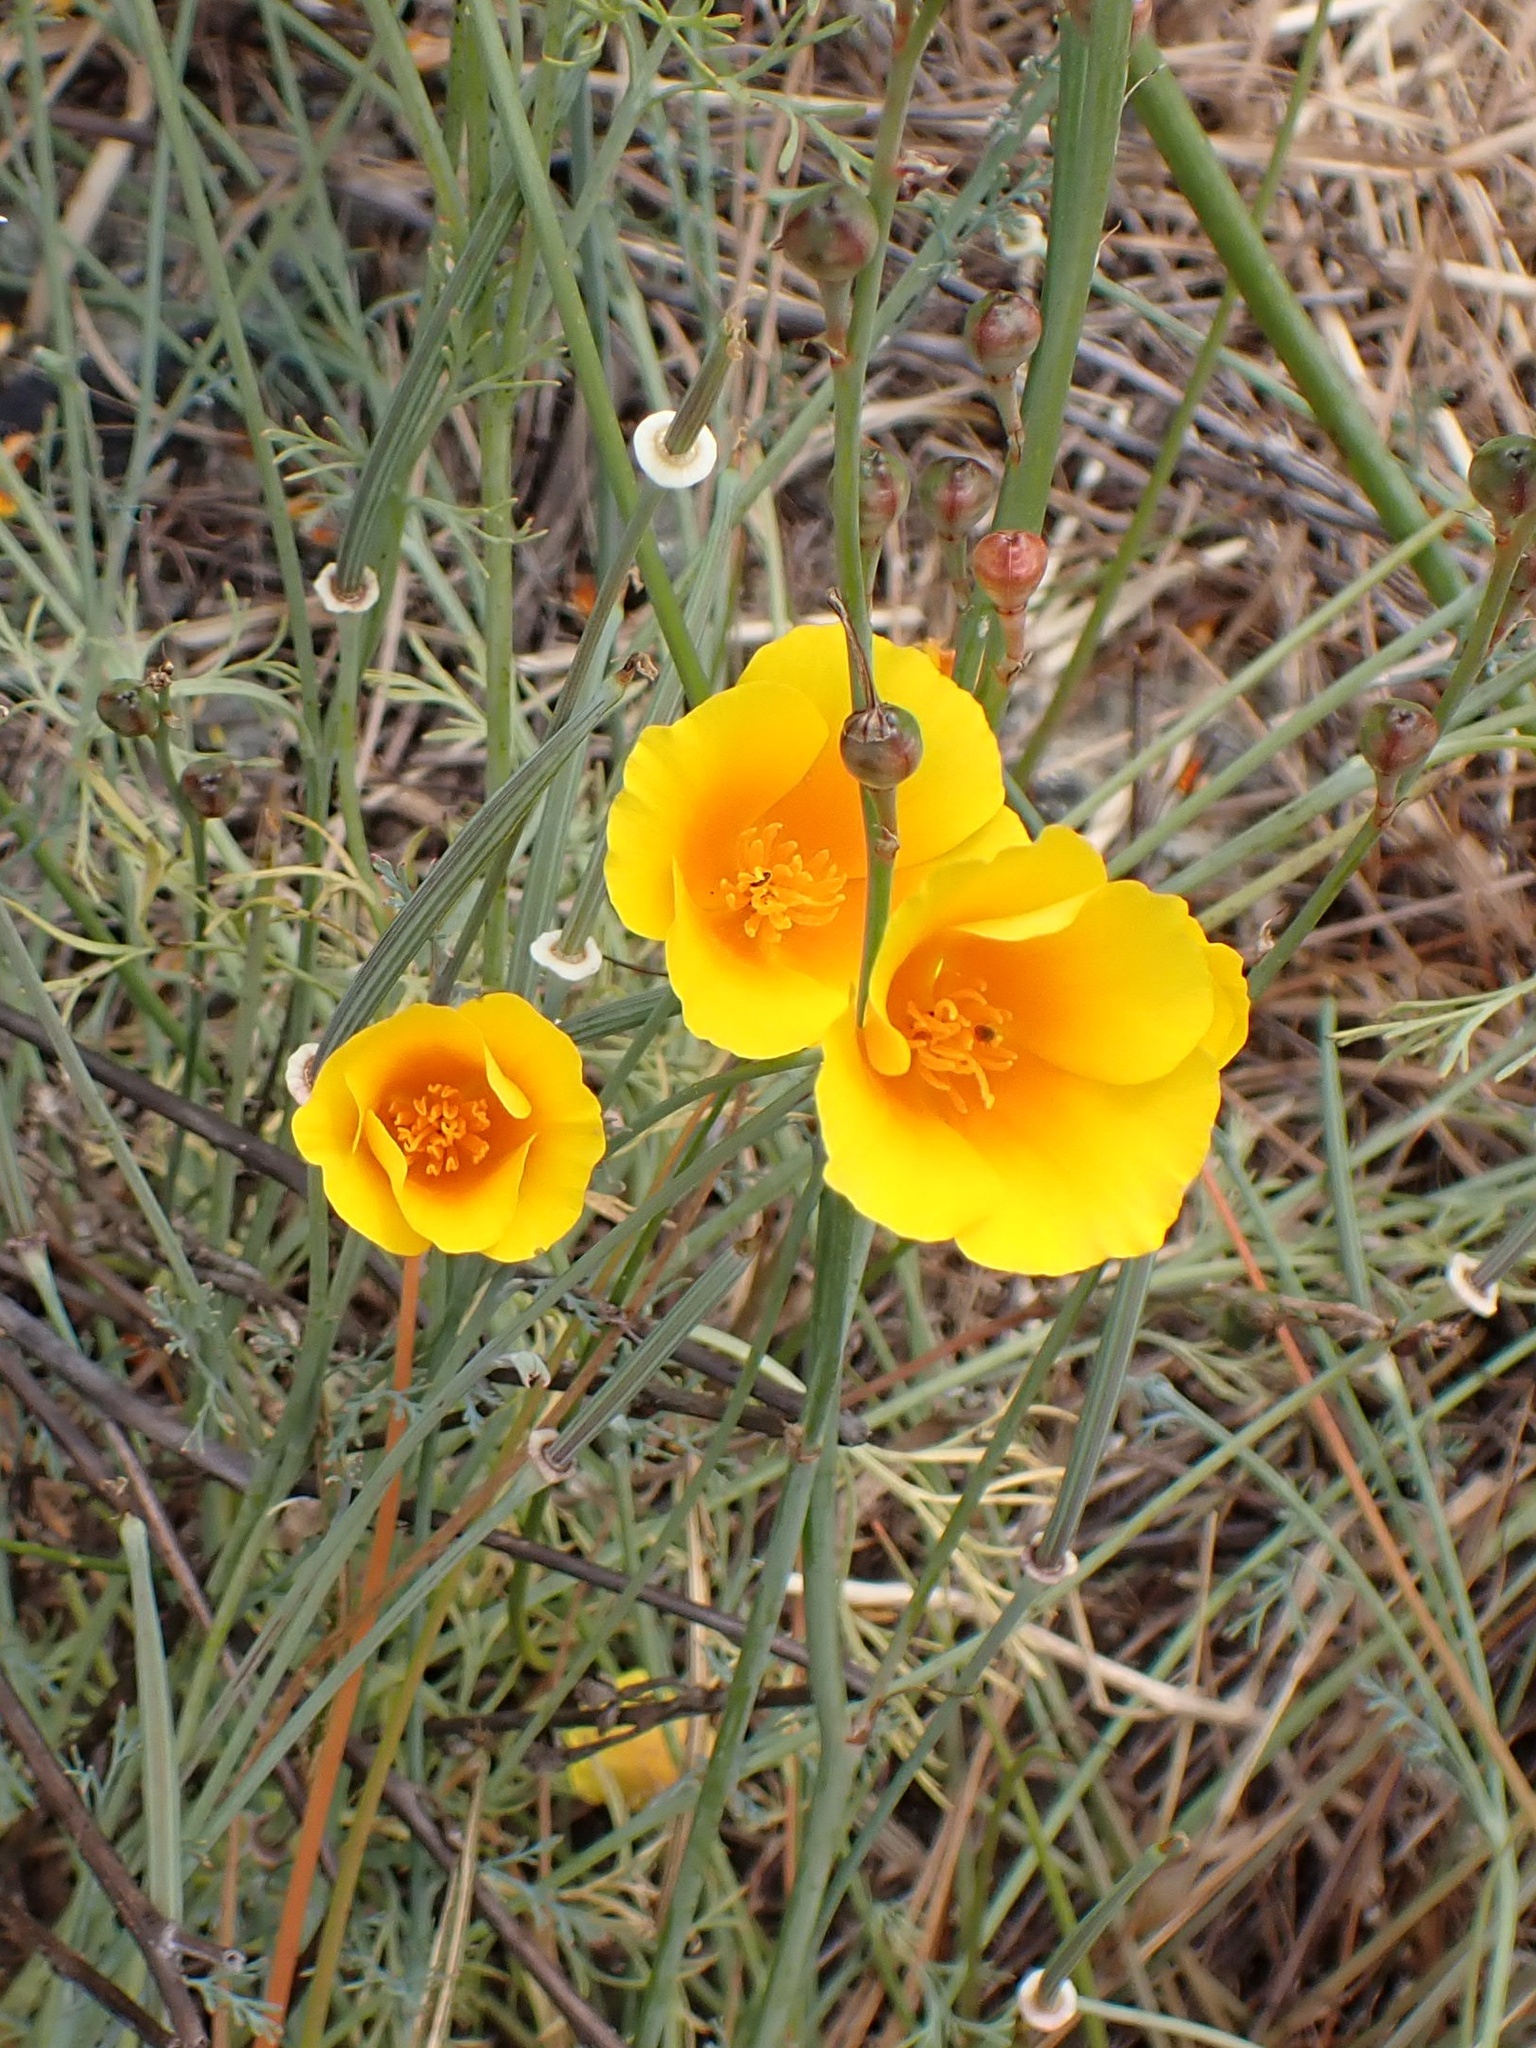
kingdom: Plantae
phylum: Tracheophyta
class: Magnoliopsida
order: Ranunculales
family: Papaveraceae
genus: Eschscholzia
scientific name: Eschscholzia californica
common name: California poppy
